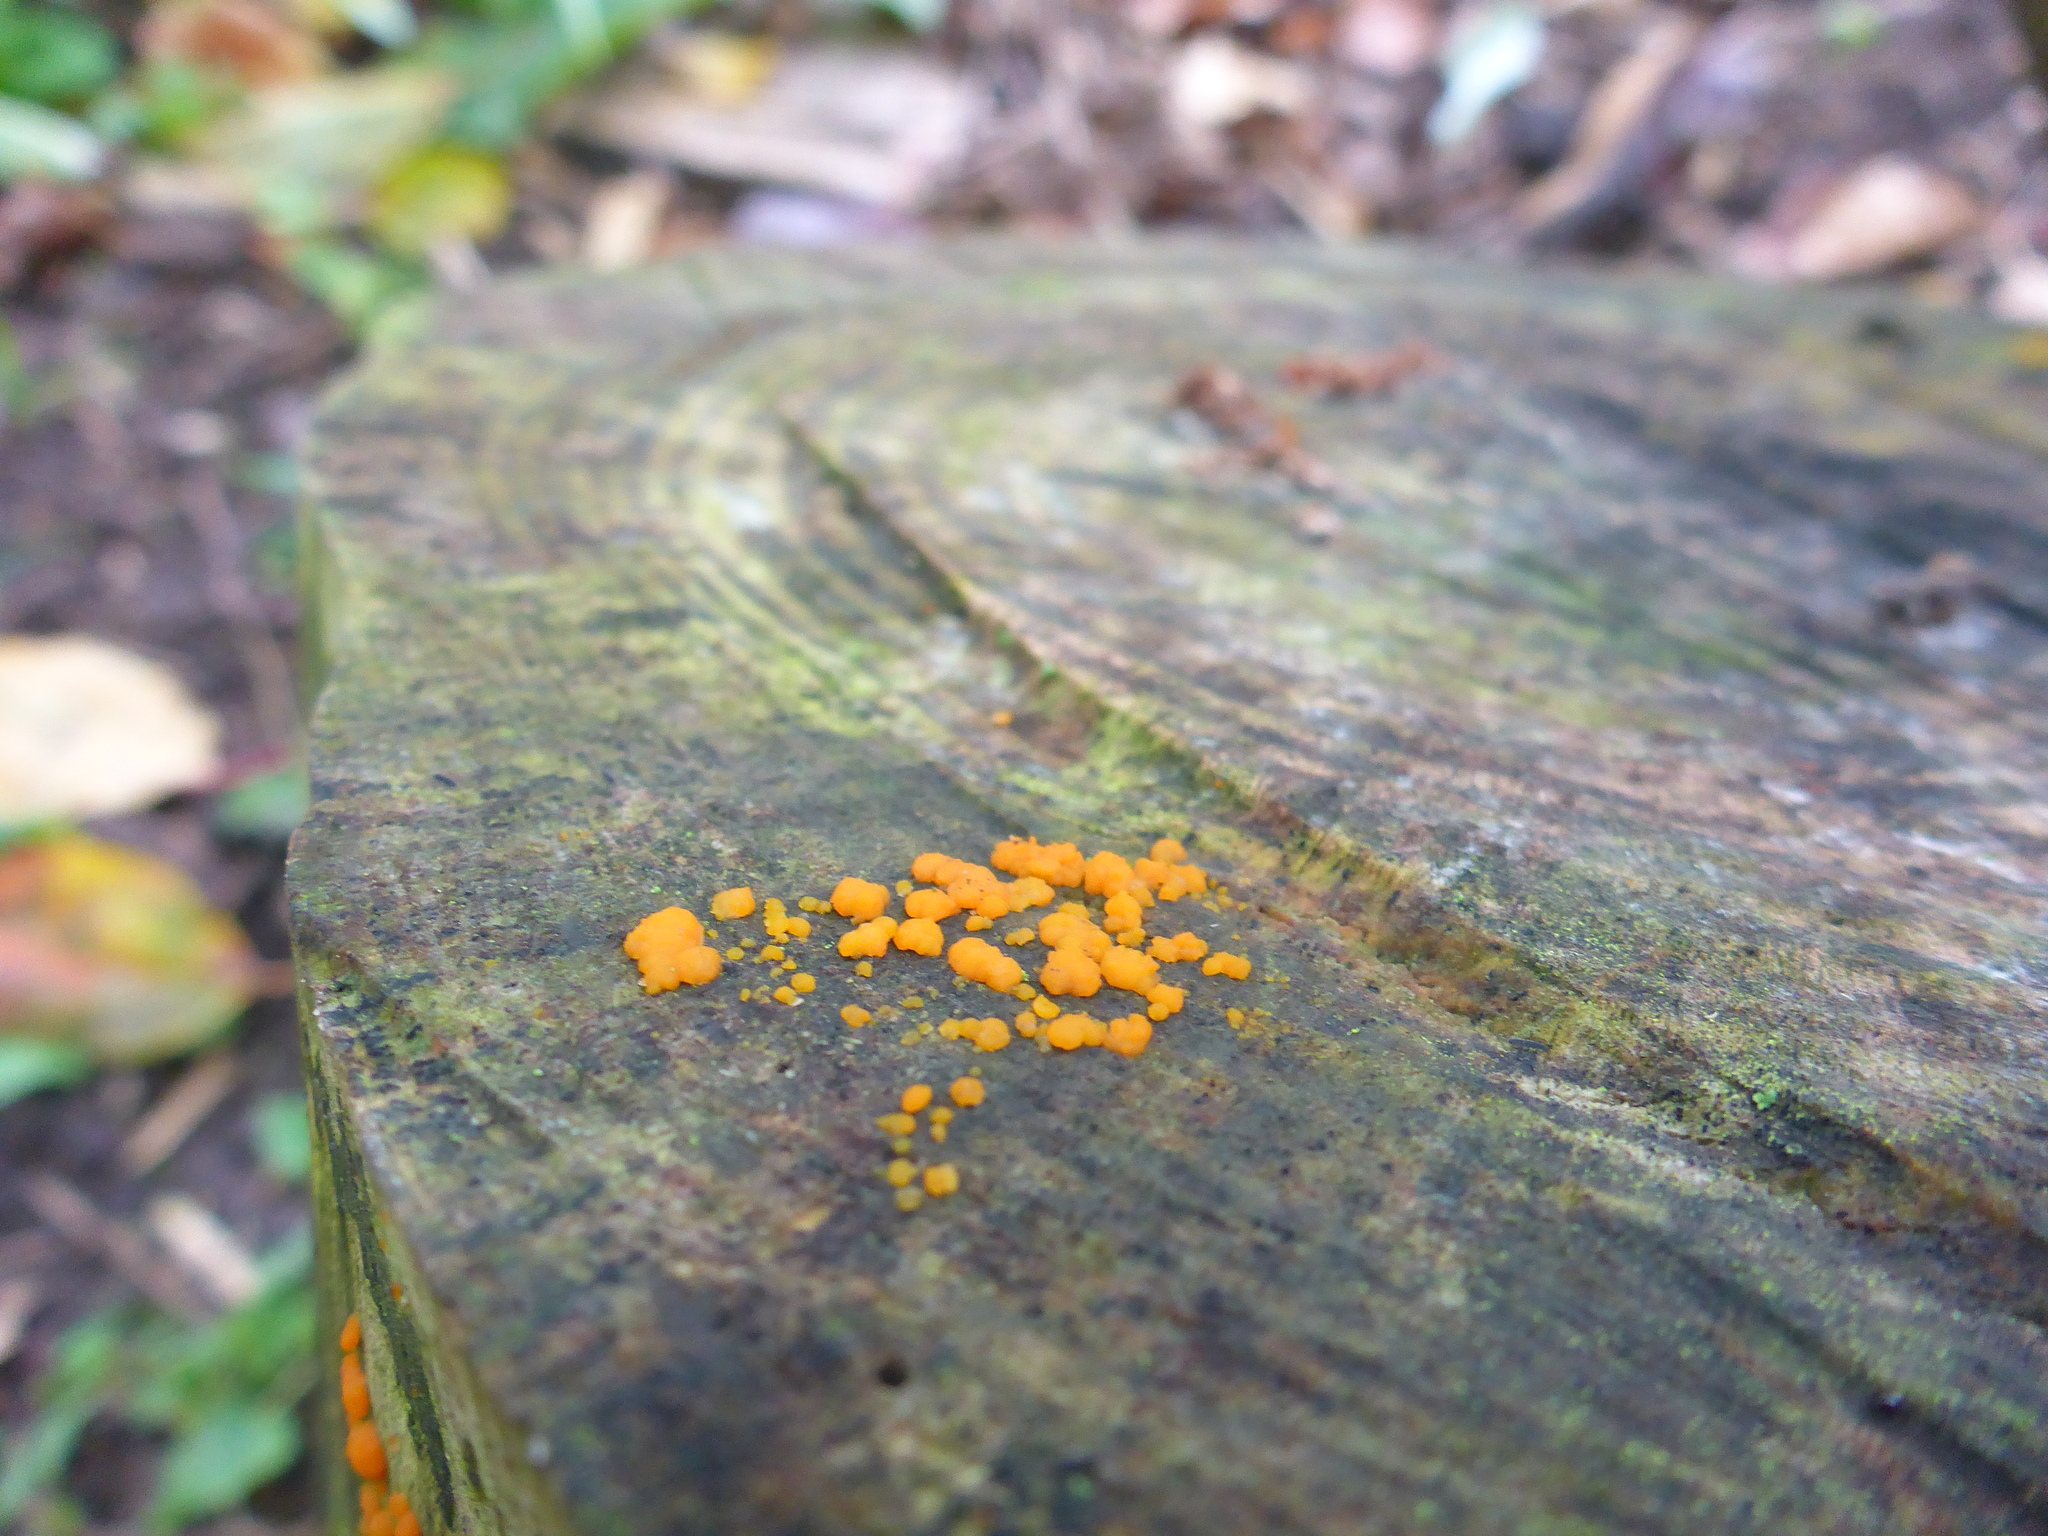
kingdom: Fungi
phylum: Basidiomycota
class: Dacrymycetes
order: Dacrymycetales
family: Dacrymycetaceae
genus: Dacrymyces
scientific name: Dacrymyces stillatus
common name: Common jelly spot
